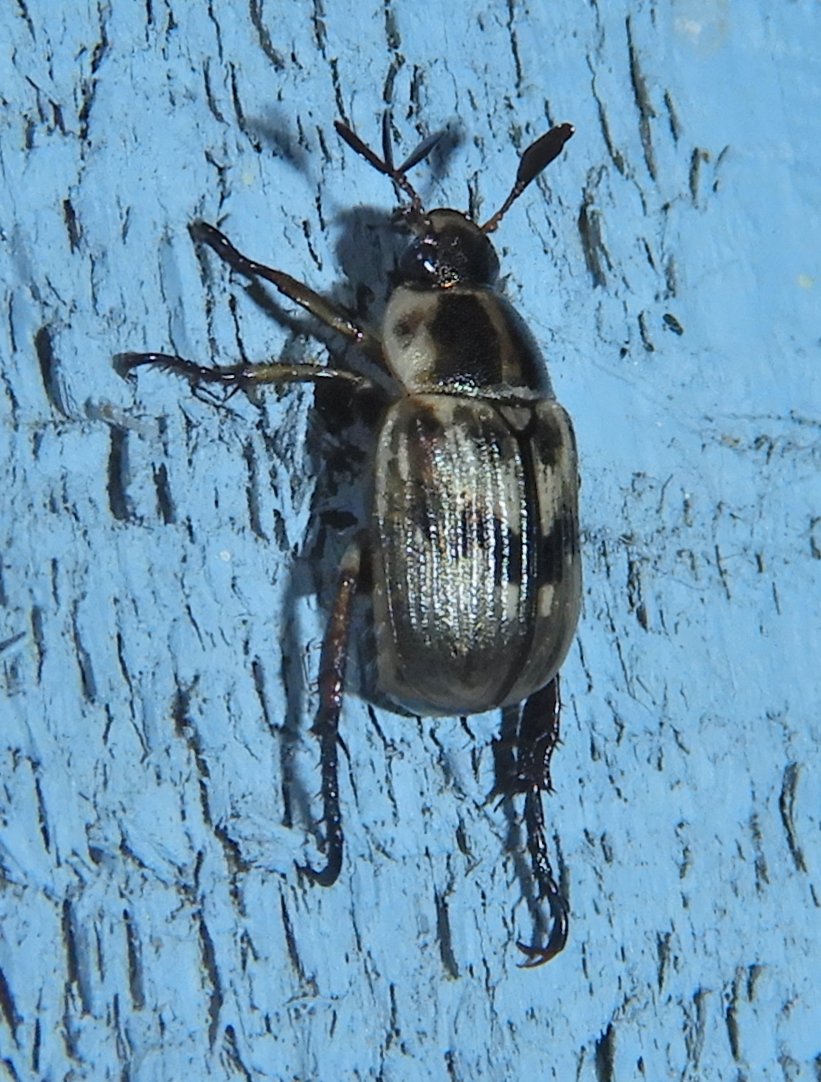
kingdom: Animalia
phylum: Arthropoda
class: Insecta
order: Coleoptera
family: Scarabaeidae
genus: Exomala
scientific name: Exomala orientalis
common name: Oriental beetle
